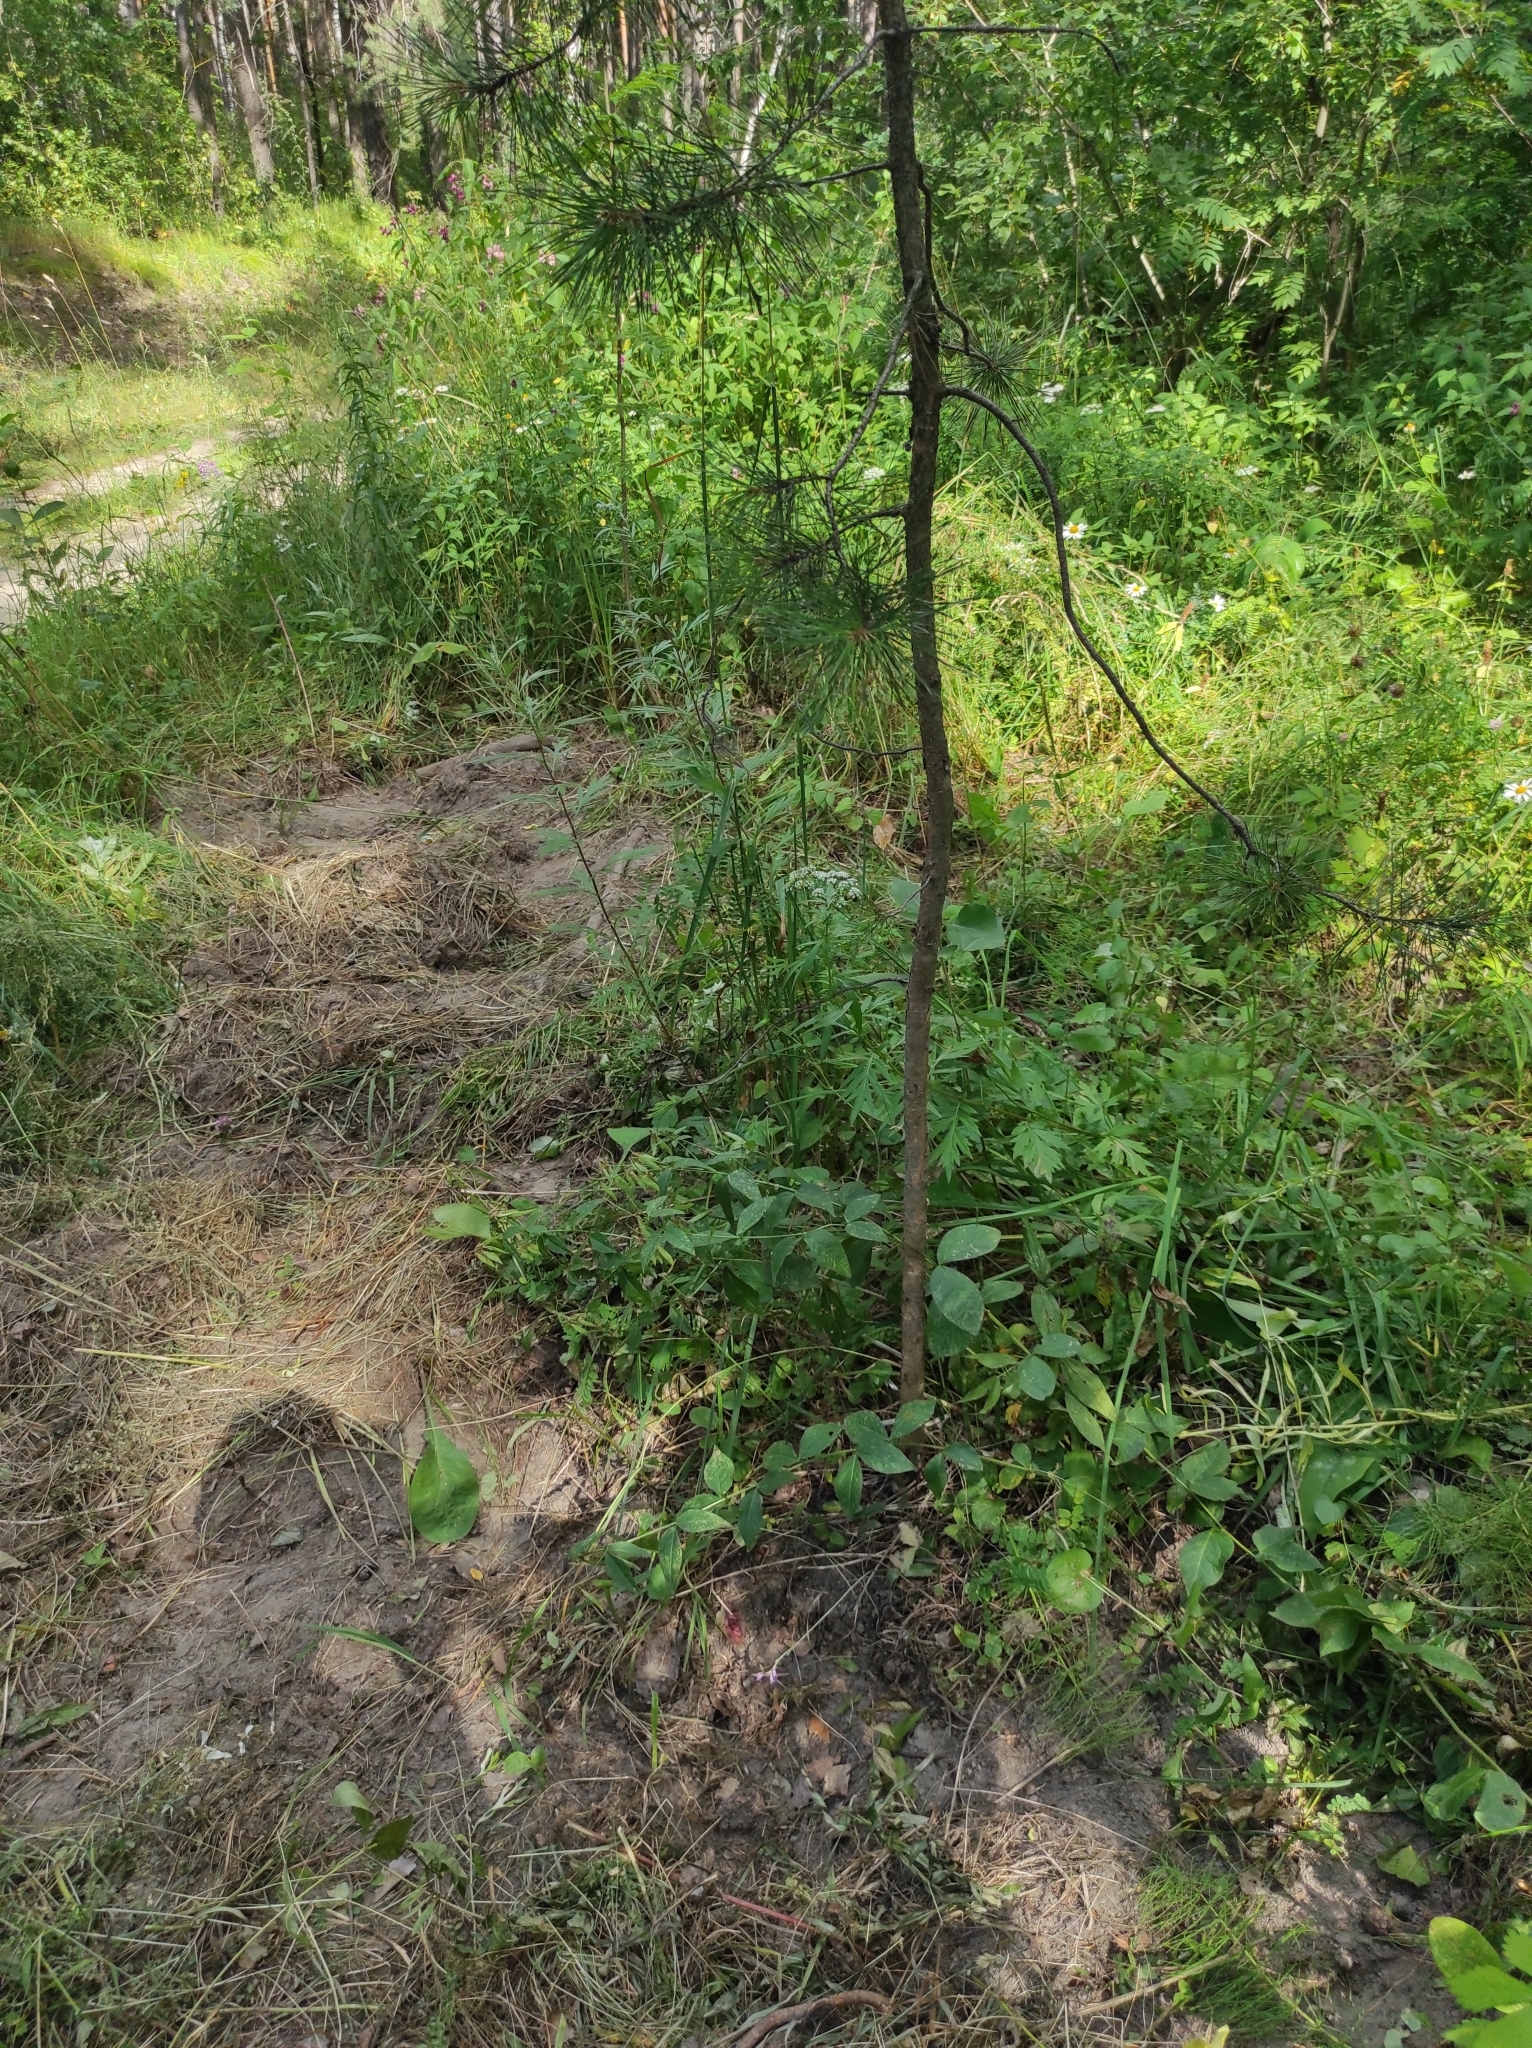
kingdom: Plantae
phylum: Tracheophyta
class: Pinopsida
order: Pinales
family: Pinaceae
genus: Pinus
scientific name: Pinus sylvestris
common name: Scots pine
